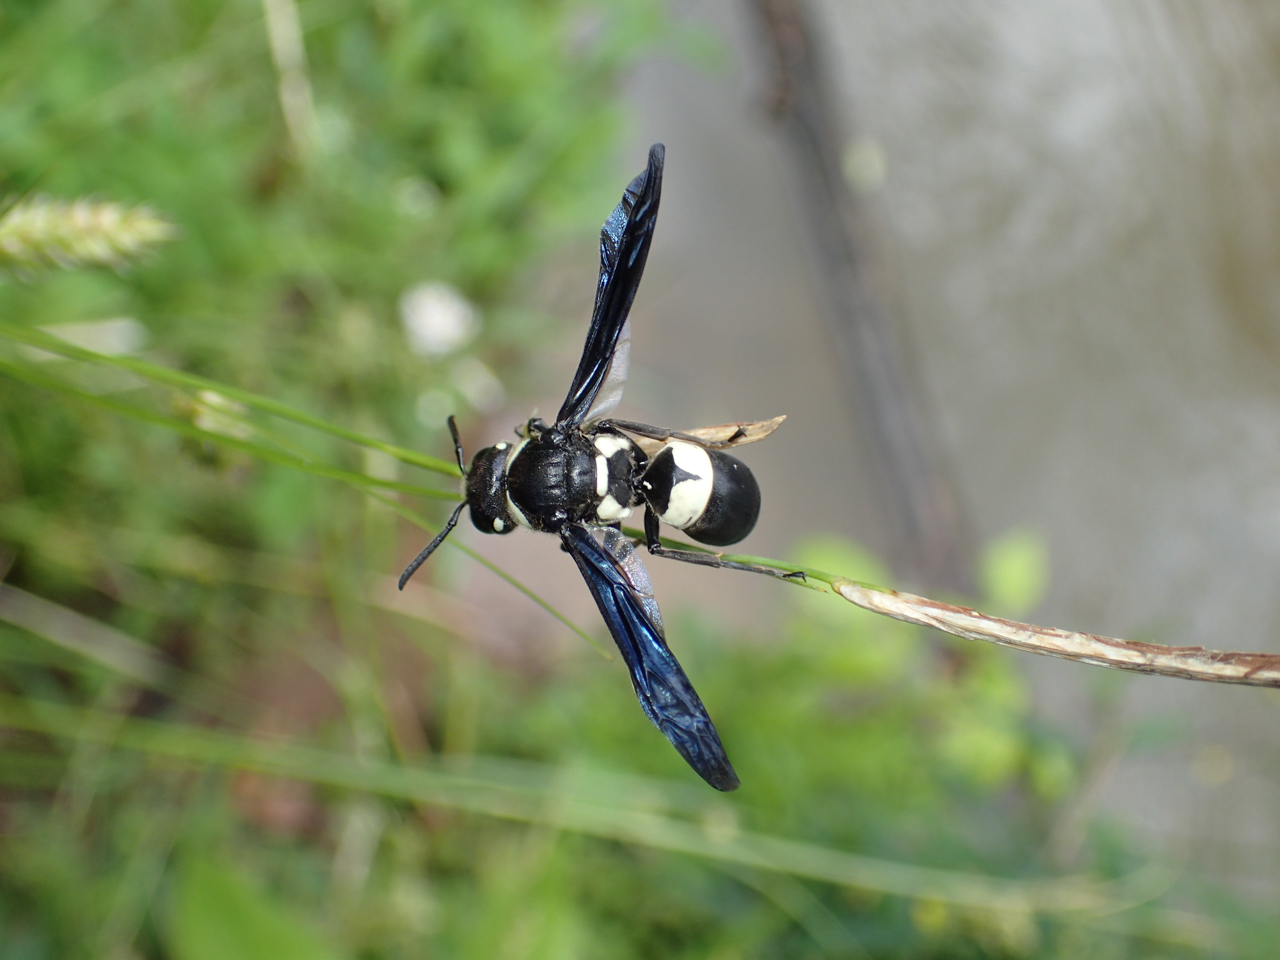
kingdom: Animalia
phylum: Arthropoda
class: Insecta
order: Hymenoptera
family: Eumenidae
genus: Euodynerus
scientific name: Euodynerus bidens
